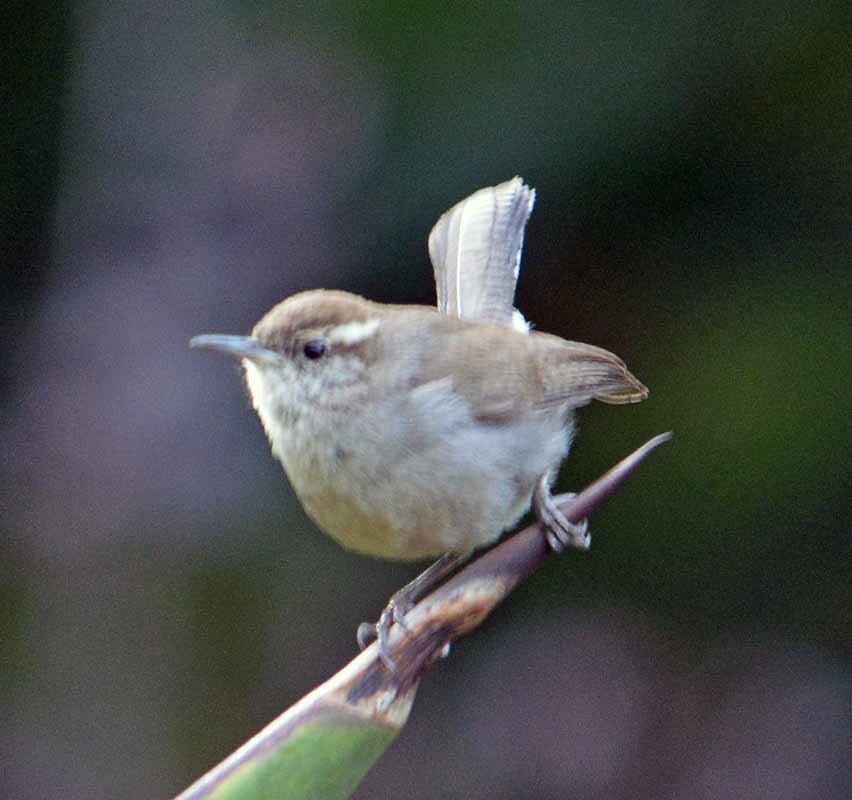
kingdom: Animalia
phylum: Chordata
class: Aves
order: Passeriformes
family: Troglodytidae
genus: Thryomanes
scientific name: Thryomanes bewickii
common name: Bewick's wren
